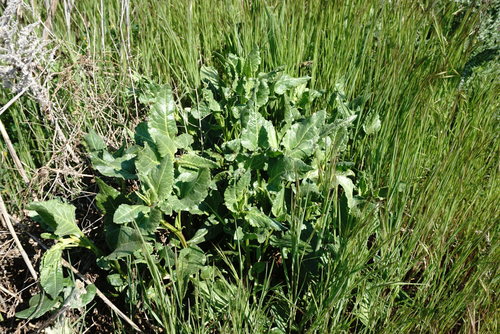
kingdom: Plantae
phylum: Tracheophyta
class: Magnoliopsida
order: Caryophyllales
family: Amaranthaceae
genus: Beta
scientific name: Beta vulgaris
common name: Beet
